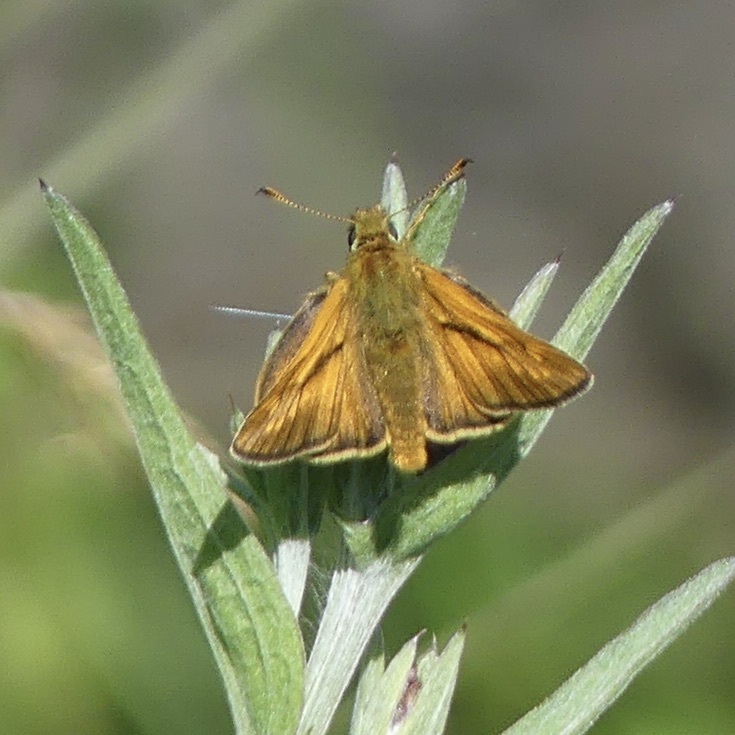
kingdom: Animalia
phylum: Arthropoda
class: Insecta
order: Lepidoptera
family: Hesperiidae
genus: Ochlodes
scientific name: Ochlodes venata
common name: Large skipper
